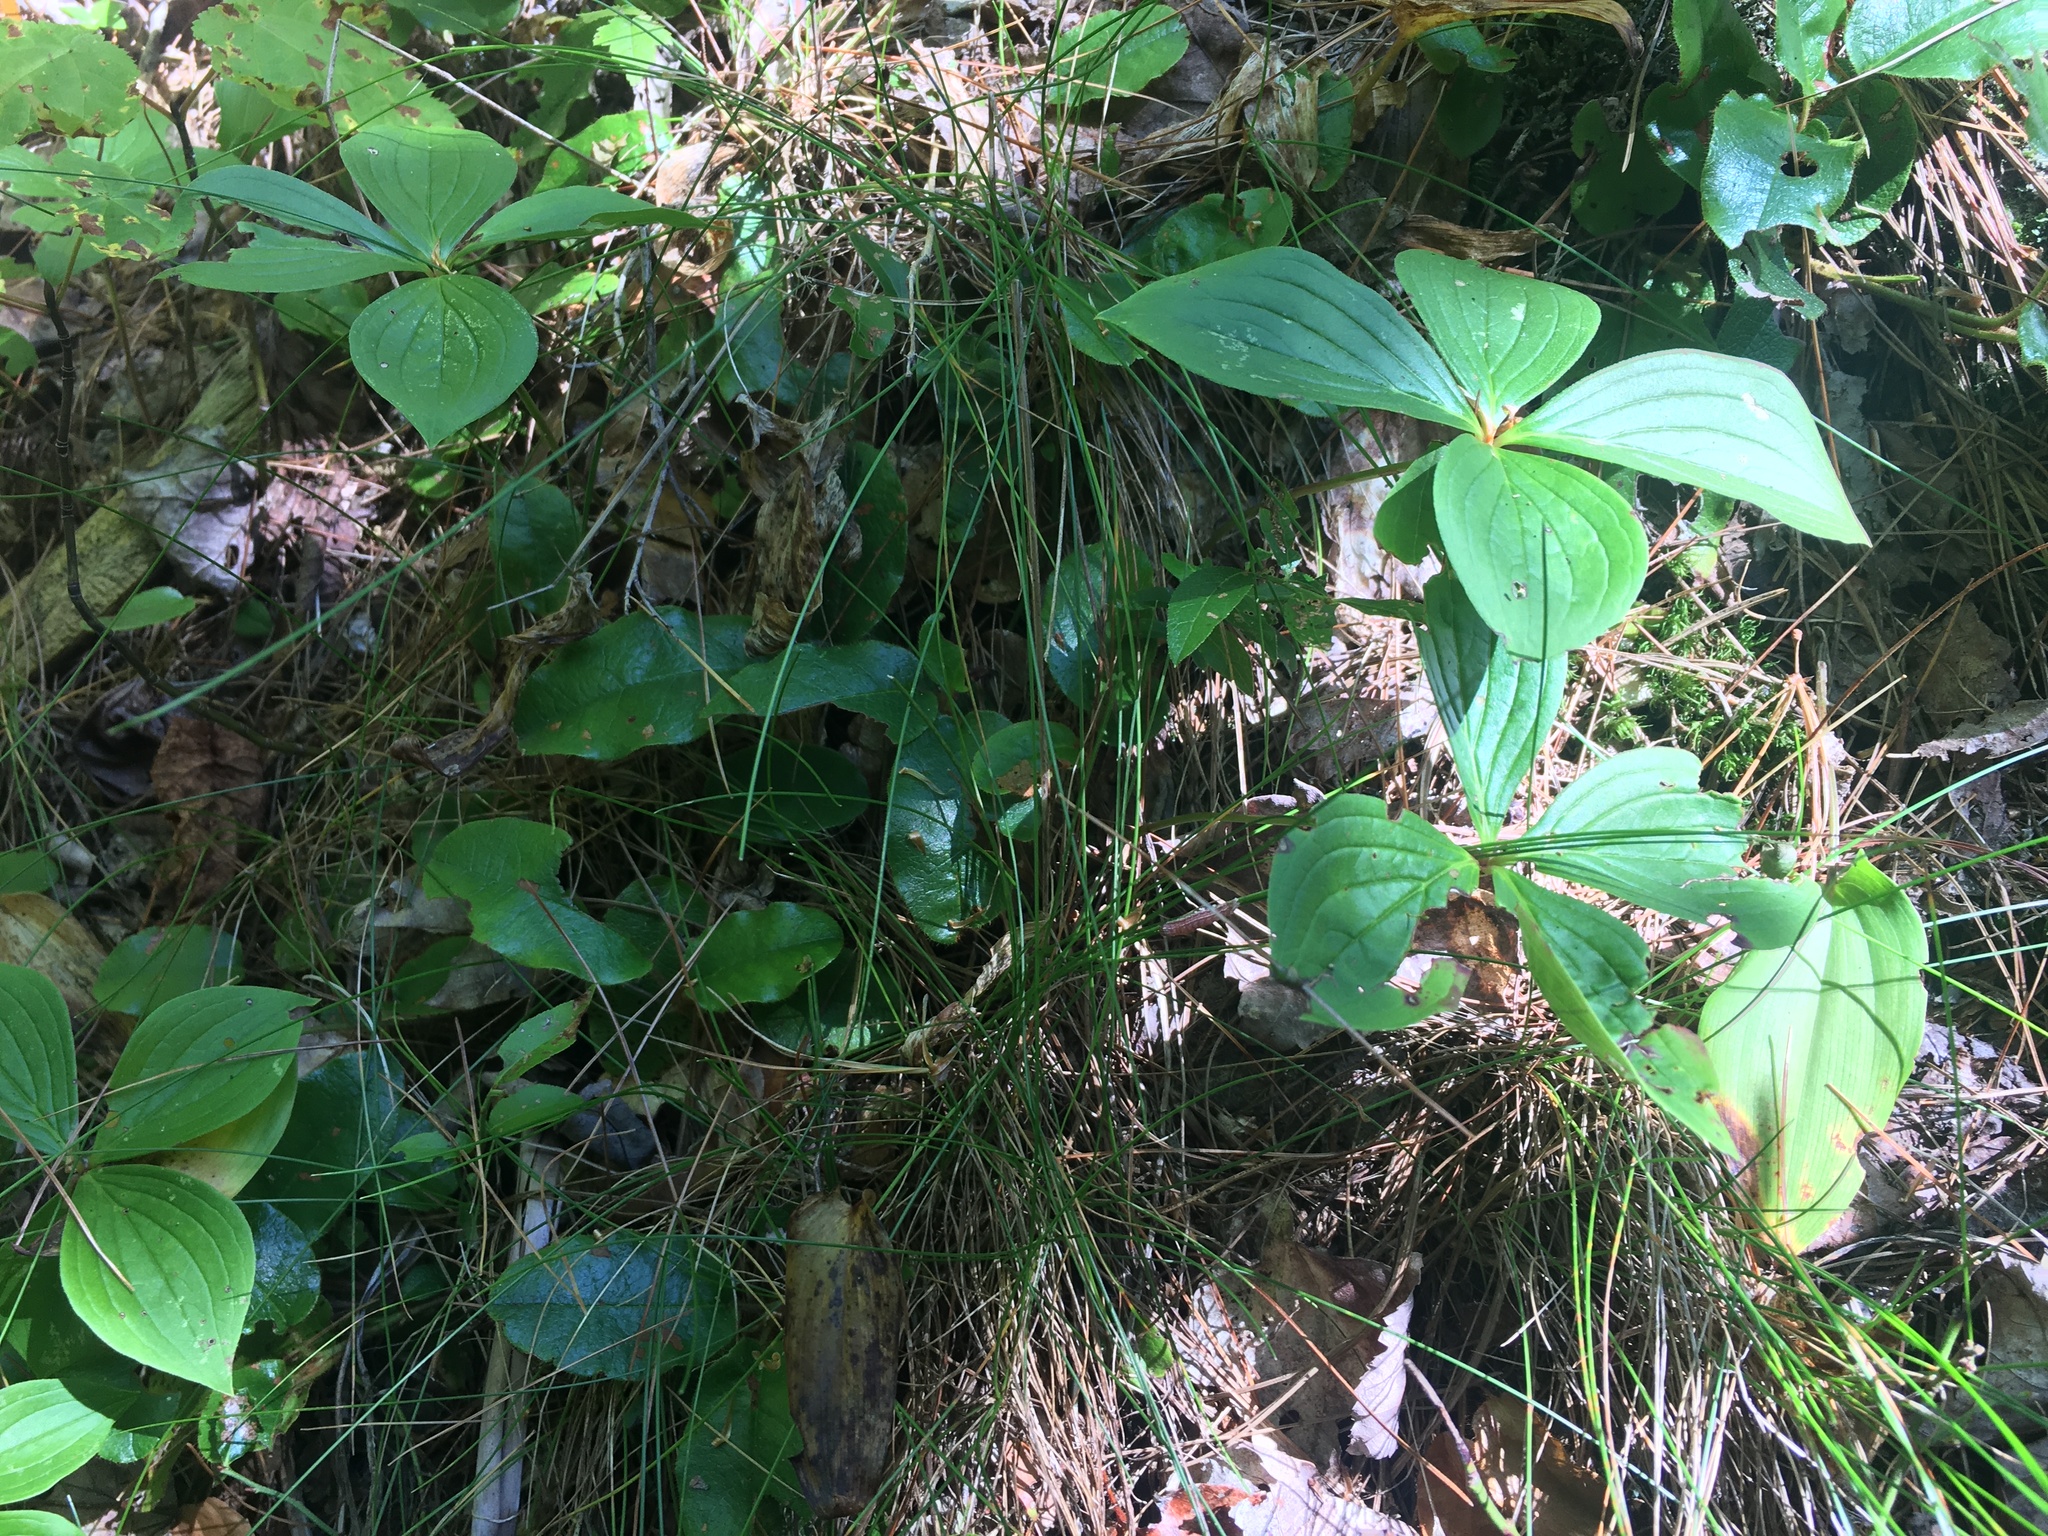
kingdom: Plantae
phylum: Tracheophyta
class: Magnoliopsida
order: Cornales
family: Cornaceae
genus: Cornus
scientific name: Cornus canadensis
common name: Creeping dogwood
